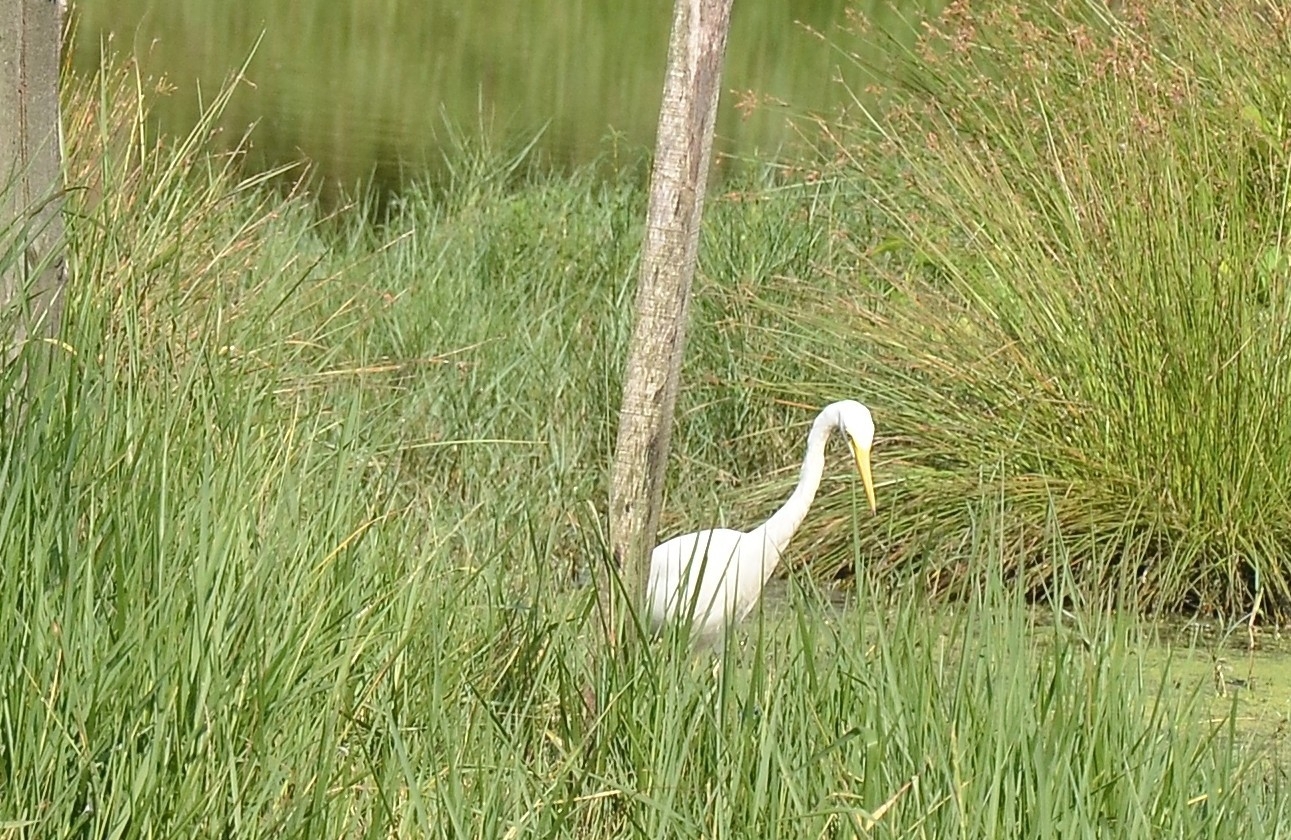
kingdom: Animalia
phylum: Chordata
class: Aves
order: Pelecaniformes
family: Ardeidae
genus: Egretta
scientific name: Egretta intermedia
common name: Intermediate egret
